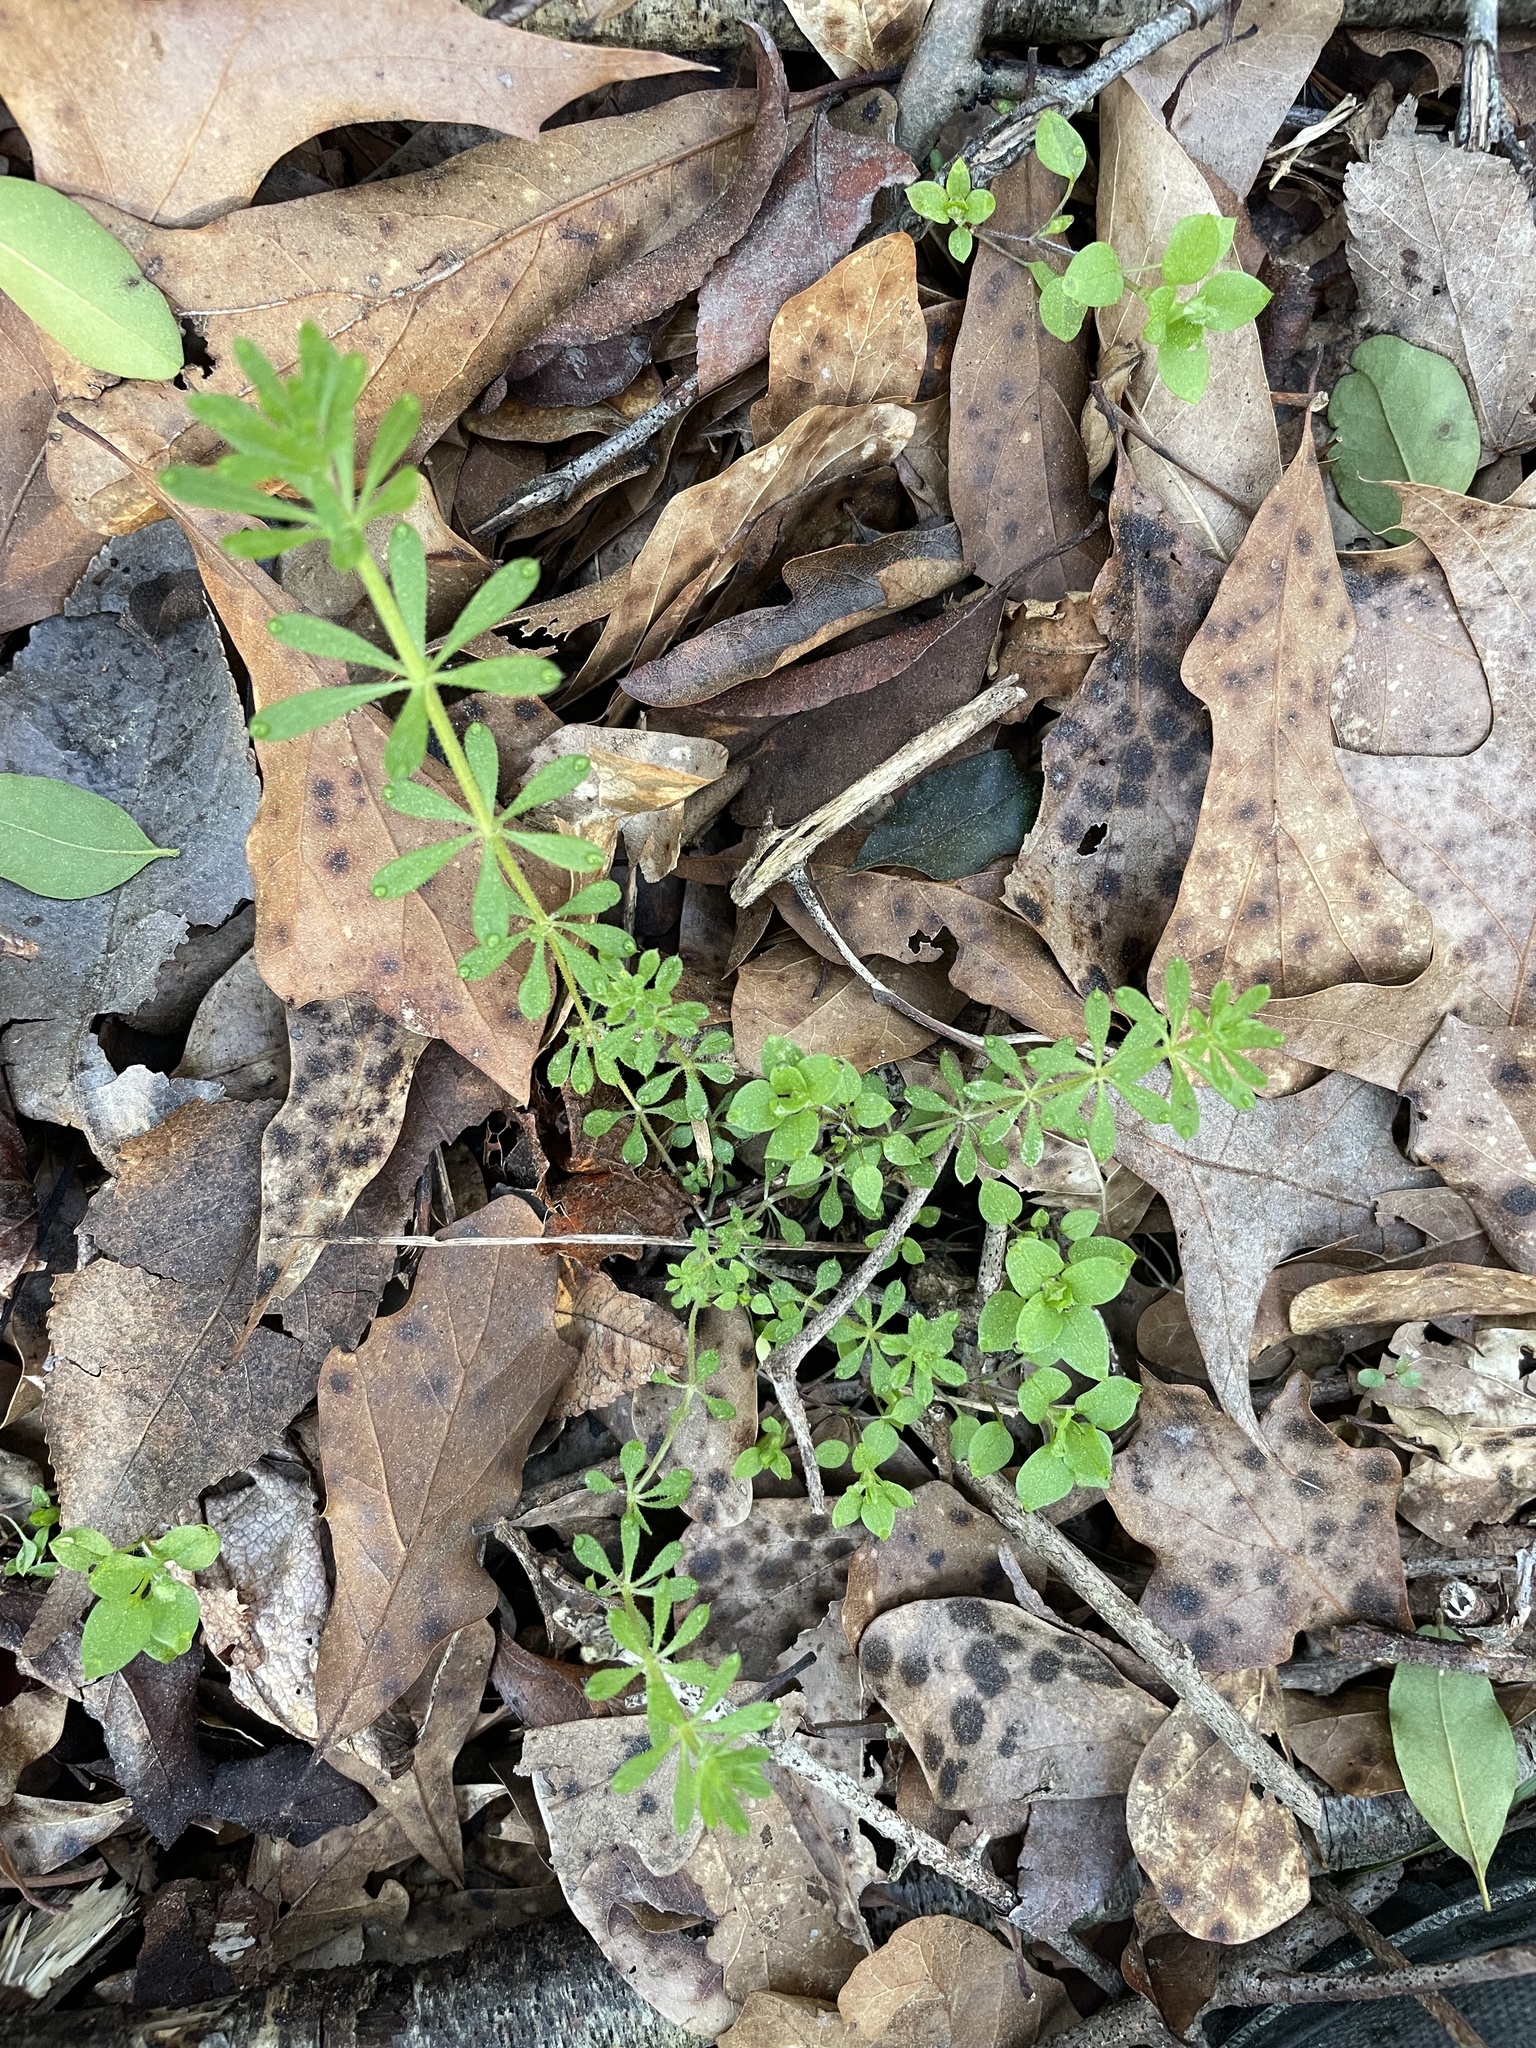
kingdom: Plantae
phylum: Tracheophyta
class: Magnoliopsida
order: Gentianales
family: Rubiaceae
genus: Galium
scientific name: Galium aparine
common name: Cleavers
